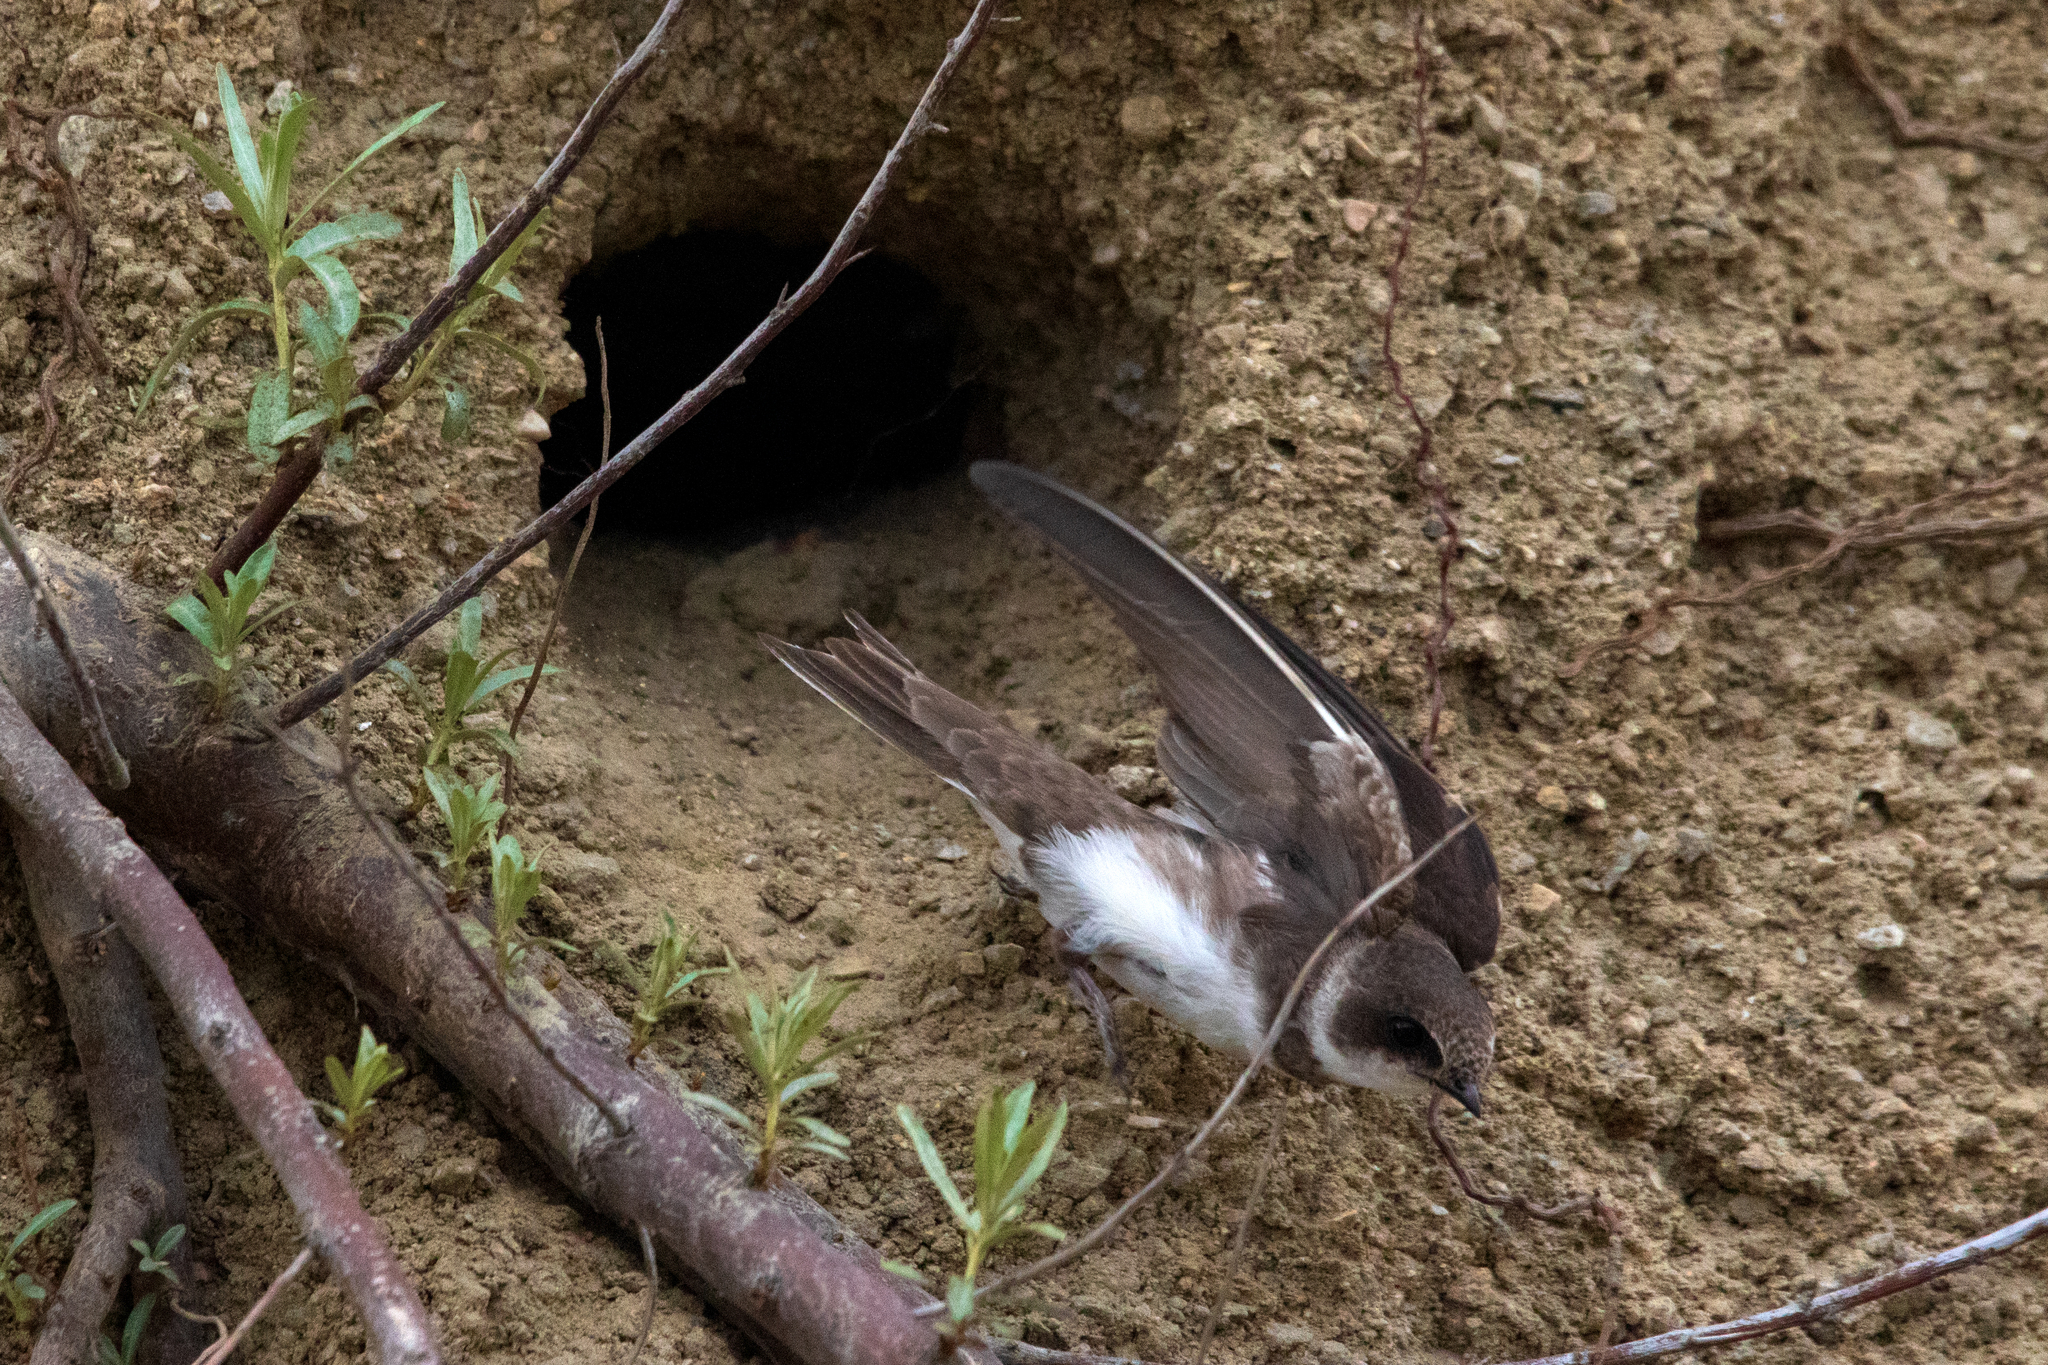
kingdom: Animalia
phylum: Chordata
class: Aves
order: Passeriformes
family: Hirundinidae
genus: Riparia
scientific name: Riparia riparia
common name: Sand martin
